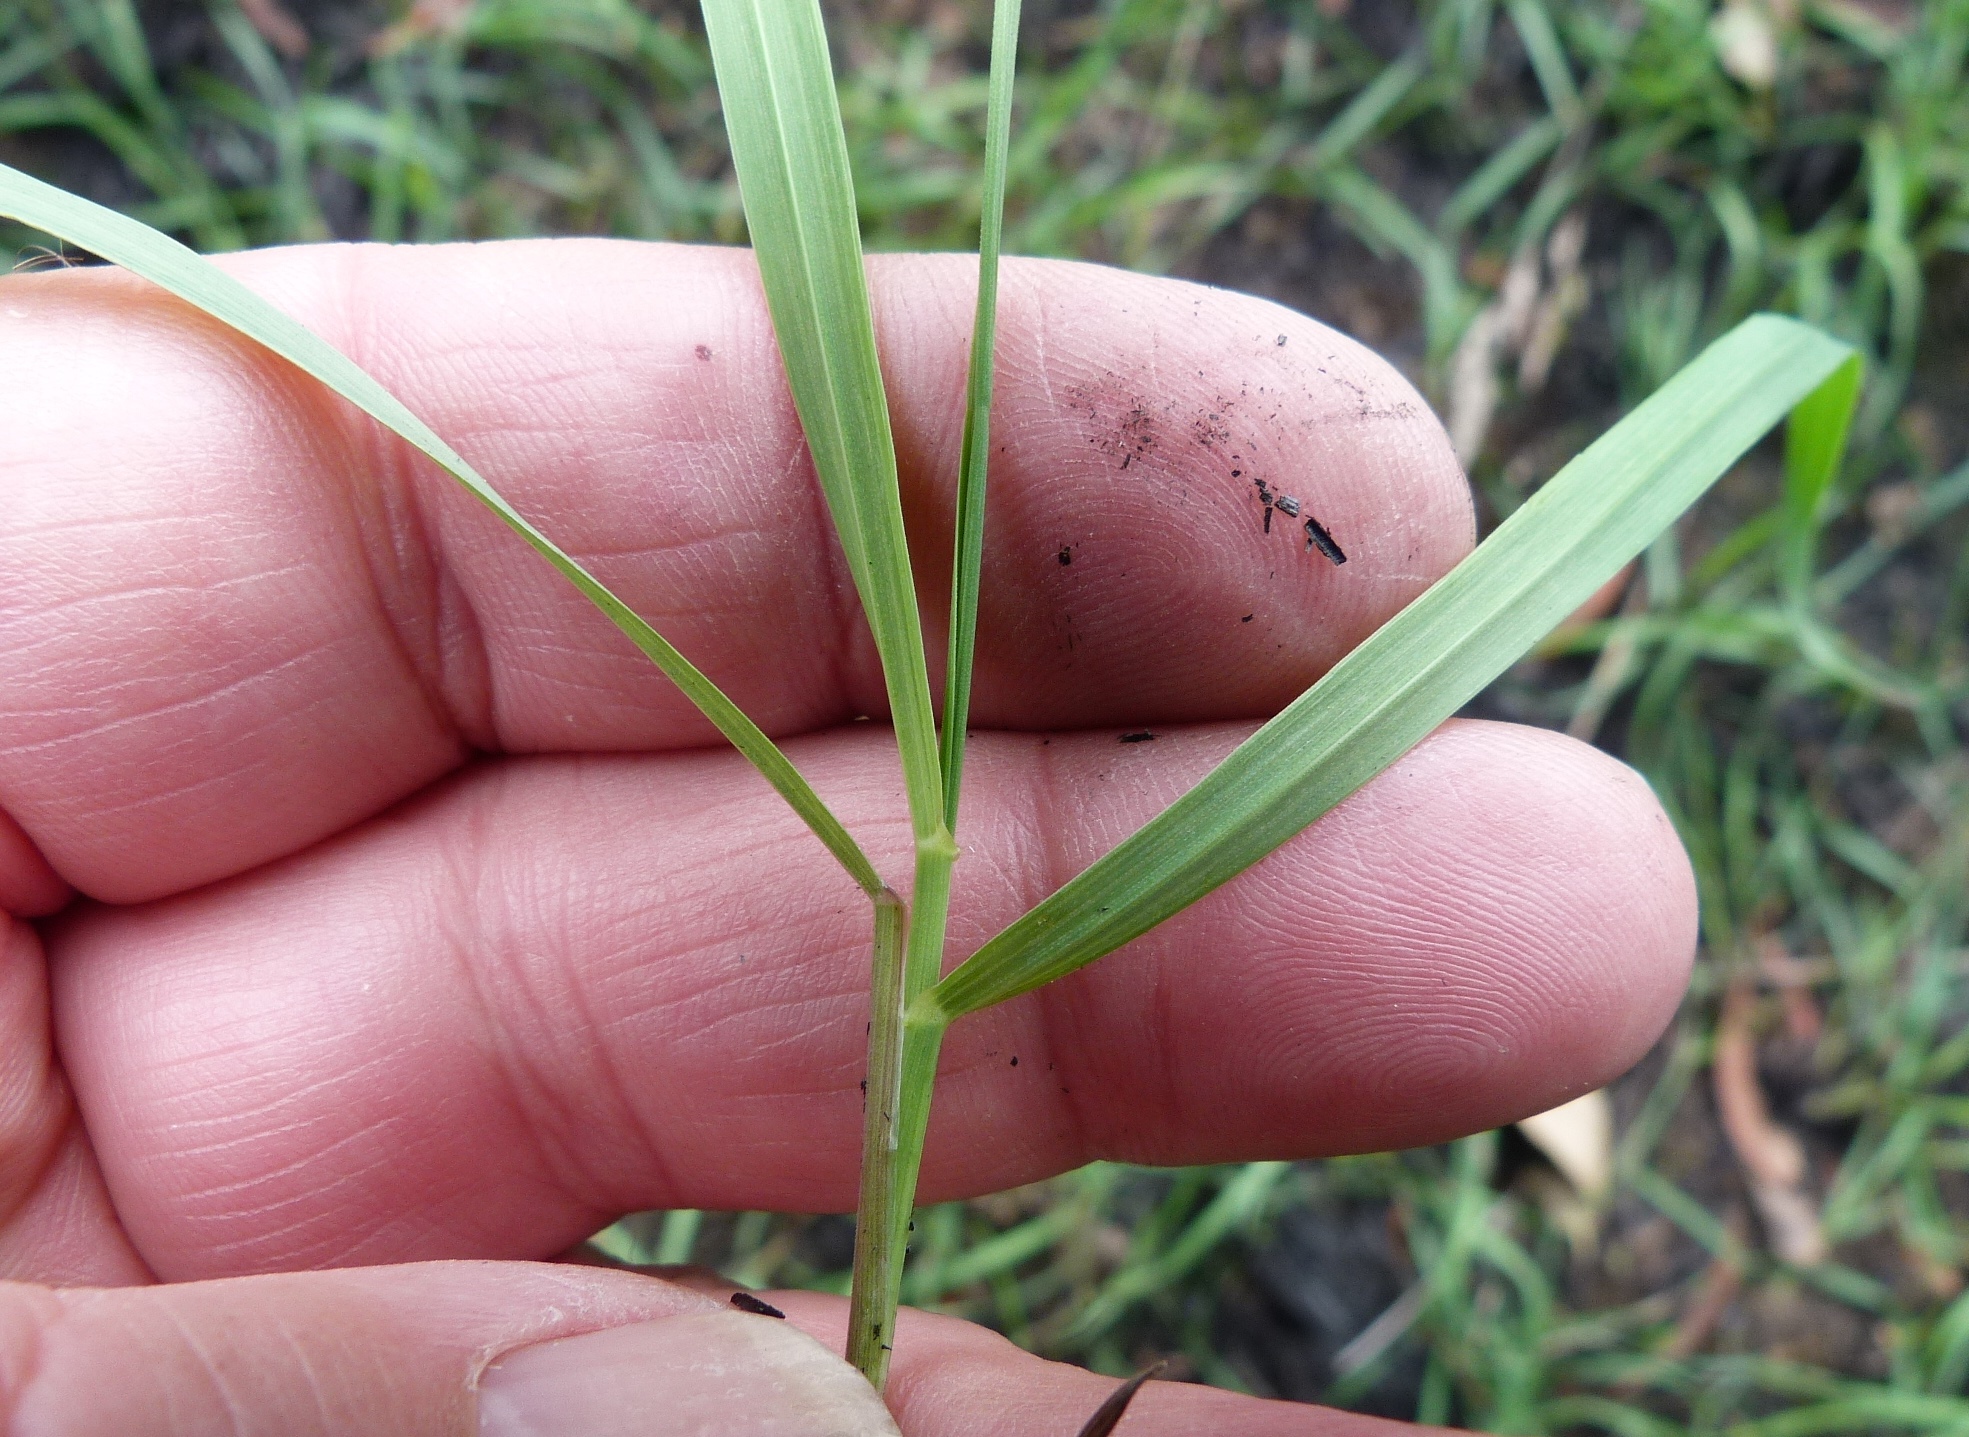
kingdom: Plantae
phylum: Tracheophyta
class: Liliopsida
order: Poales
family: Poaceae
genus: Cynosurus
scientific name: Cynosurus cristatus
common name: Crested dog's-tail
